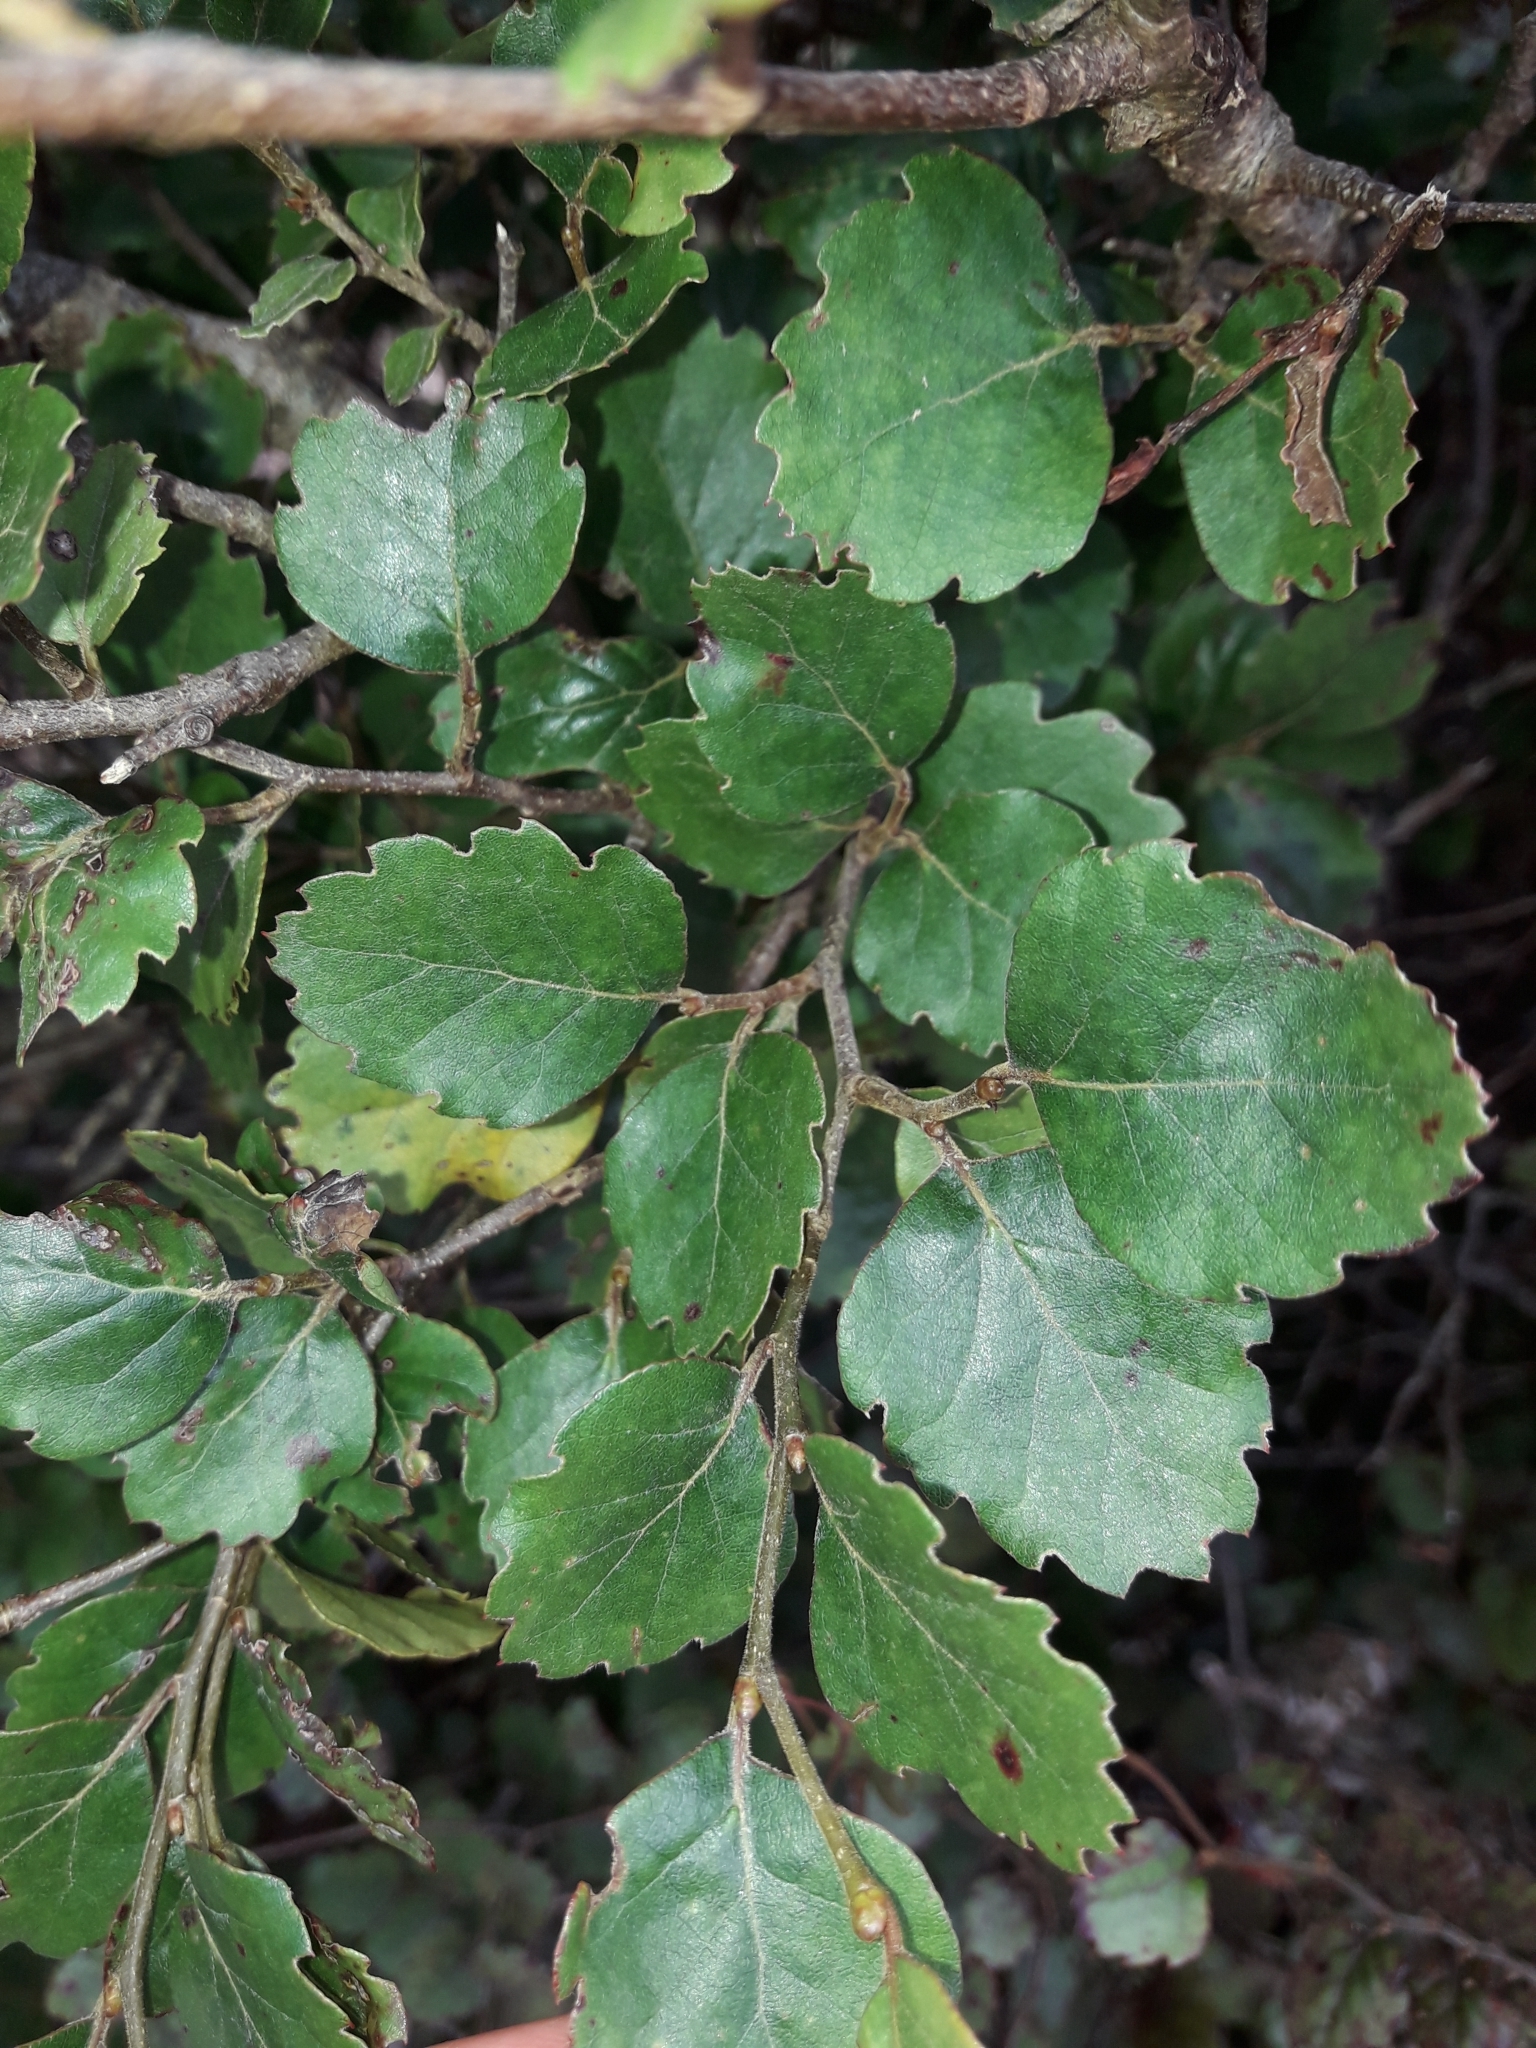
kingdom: Plantae
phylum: Tracheophyta
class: Magnoliopsida
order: Fagales
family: Nothofagaceae
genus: Nothofagus
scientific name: Nothofagus fusca
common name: Red beech
